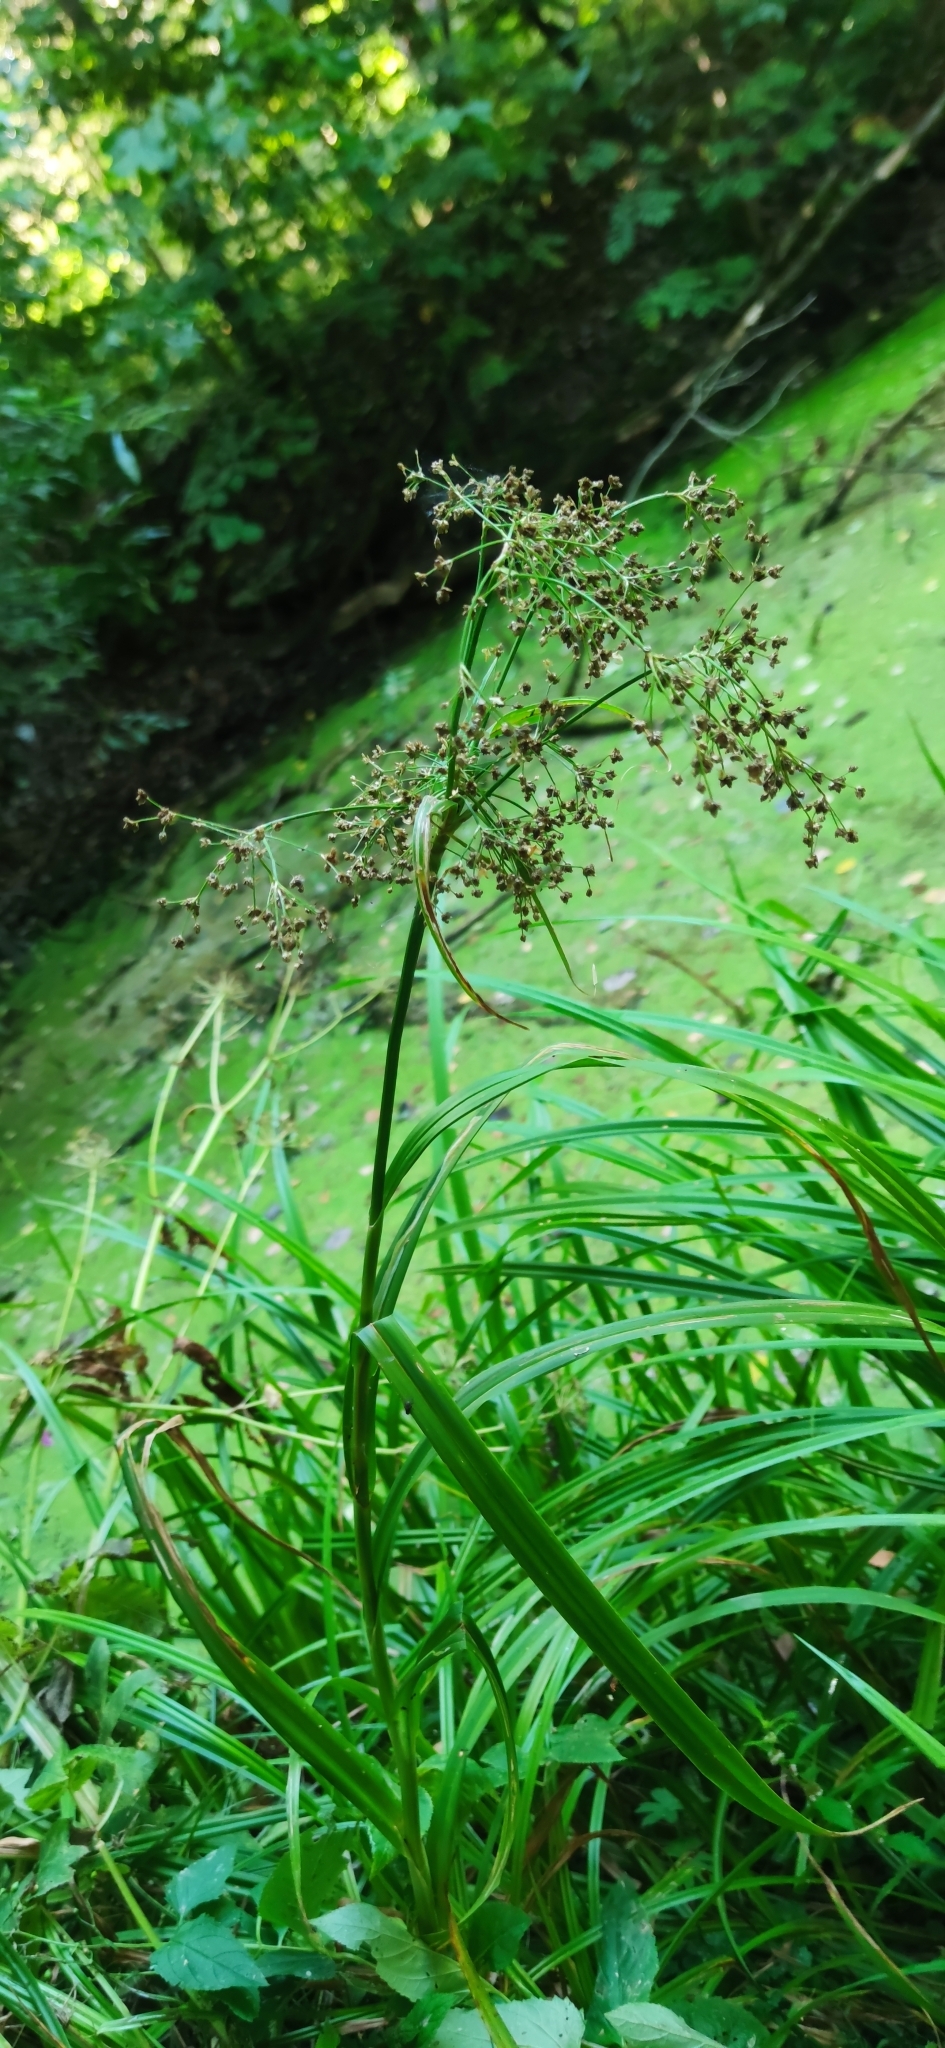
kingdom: Plantae
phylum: Tracheophyta
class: Liliopsida
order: Poales
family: Cyperaceae
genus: Scirpus
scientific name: Scirpus sylvaticus
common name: Wood club-rush
